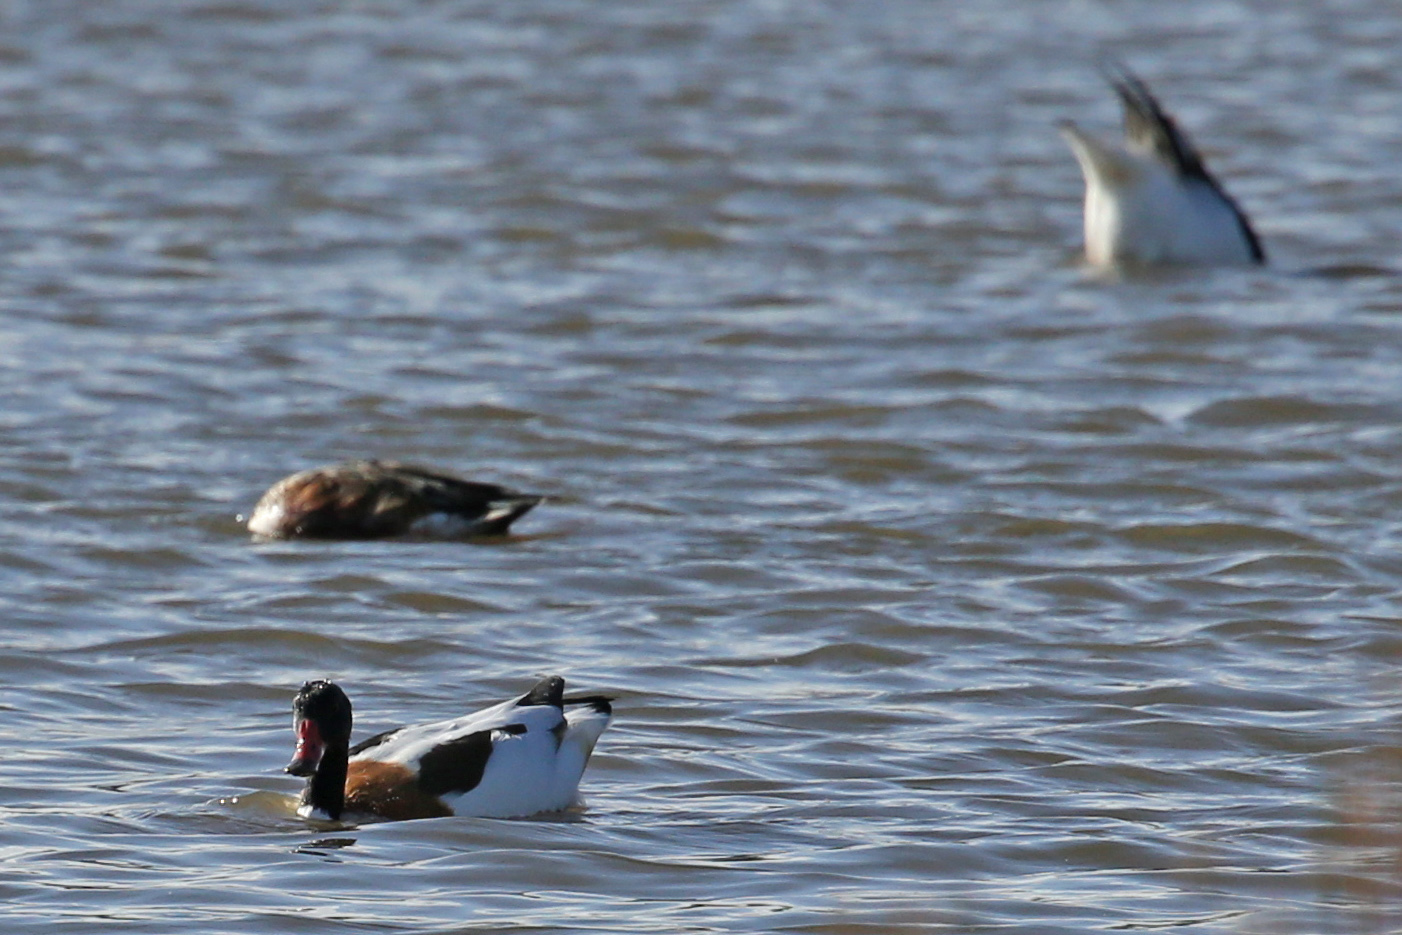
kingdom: Animalia
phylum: Chordata
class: Aves
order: Anseriformes
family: Anatidae
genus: Tadorna
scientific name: Tadorna tadorna
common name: Common shelduck
